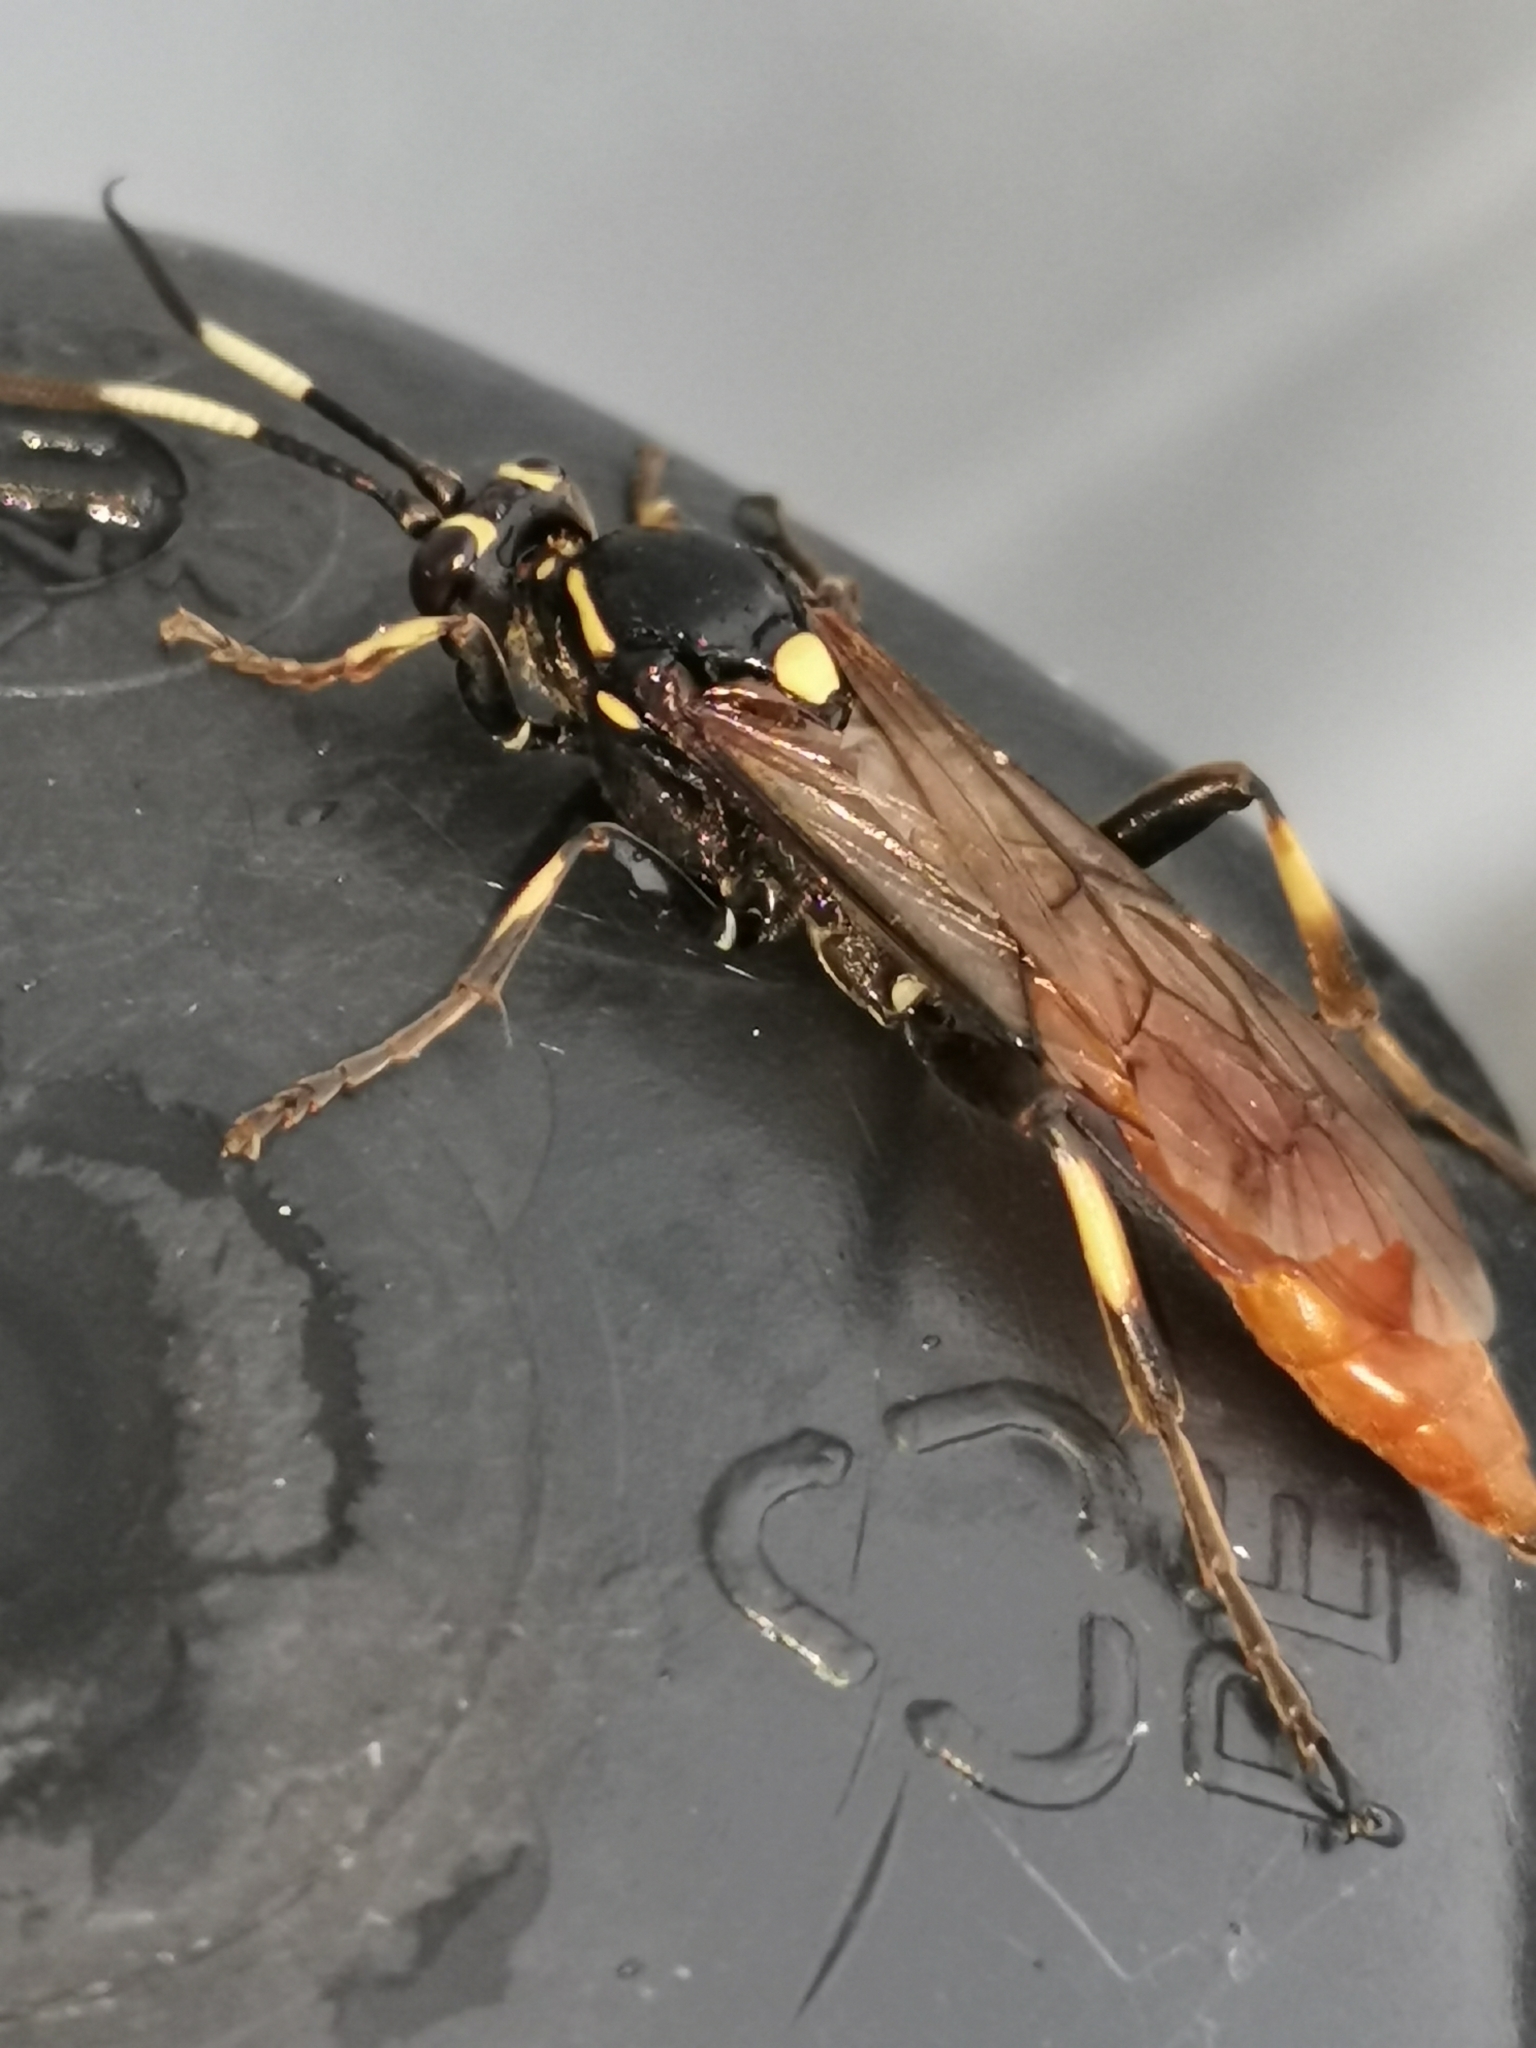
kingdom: Animalia
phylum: Arthropoda
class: Insecta
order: Hymenoptera
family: Ichneumonidae
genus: Protichneumon
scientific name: Protichneumon pisorius
